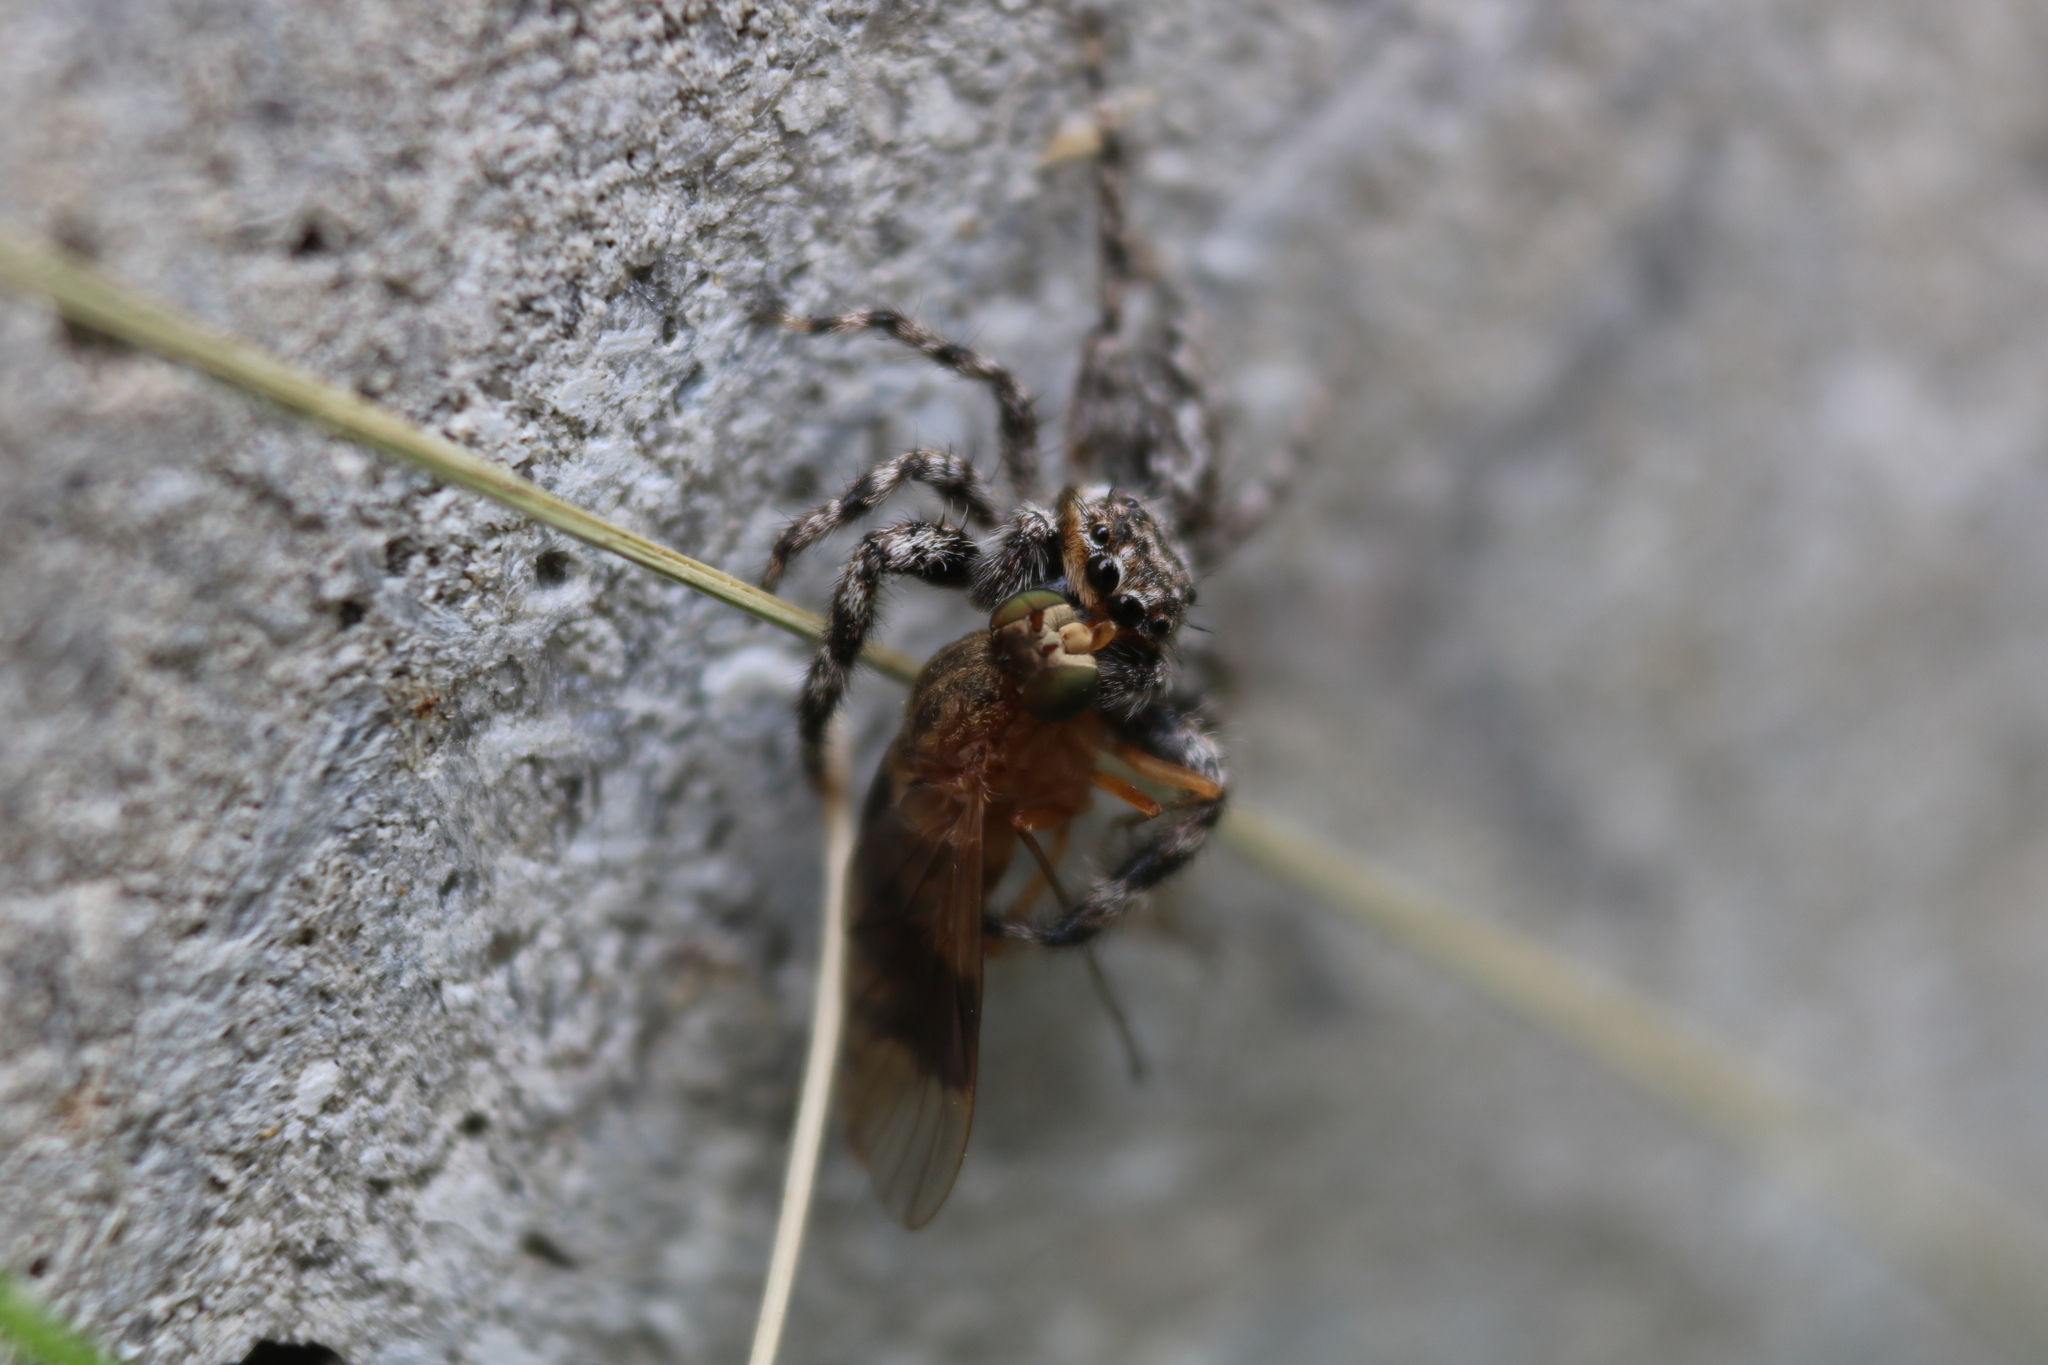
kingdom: Animalia
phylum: Arthropoda
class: Arachnida
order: Araneae
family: Salticidae
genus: Platycryptus
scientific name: Platycryptus undatus
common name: Tan jumping spider
